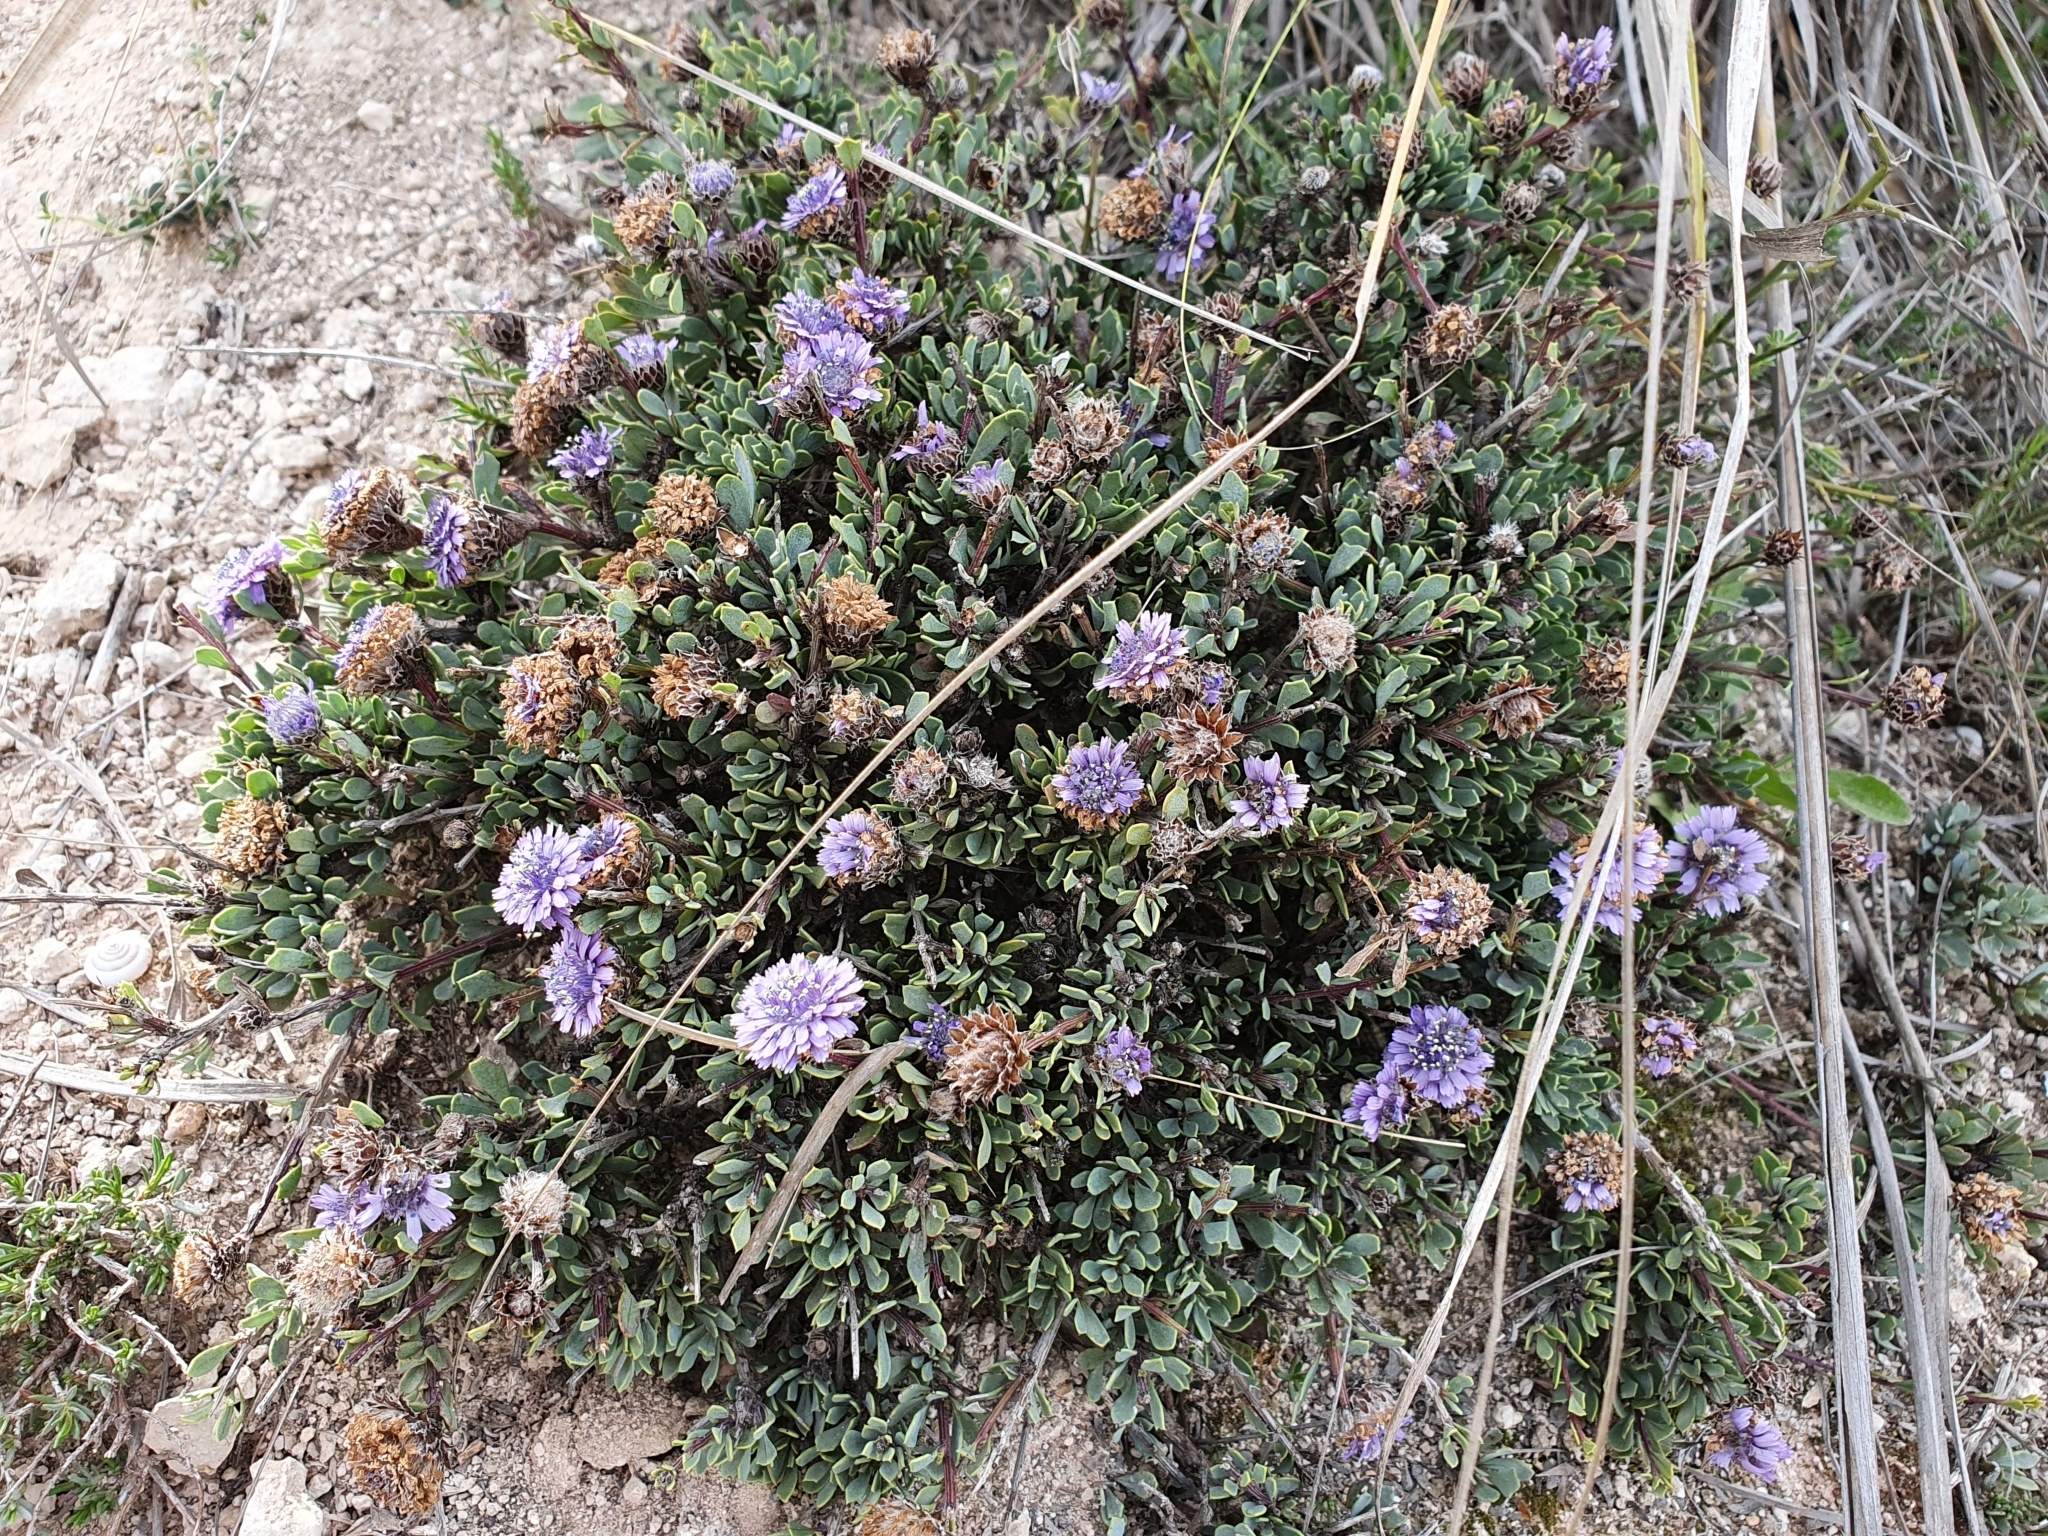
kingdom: Plantae
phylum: Tracheophyta
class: Magnoliopsida
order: Lamiales
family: Plantaginaceae
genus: Globularia
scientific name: Globularia alypum
